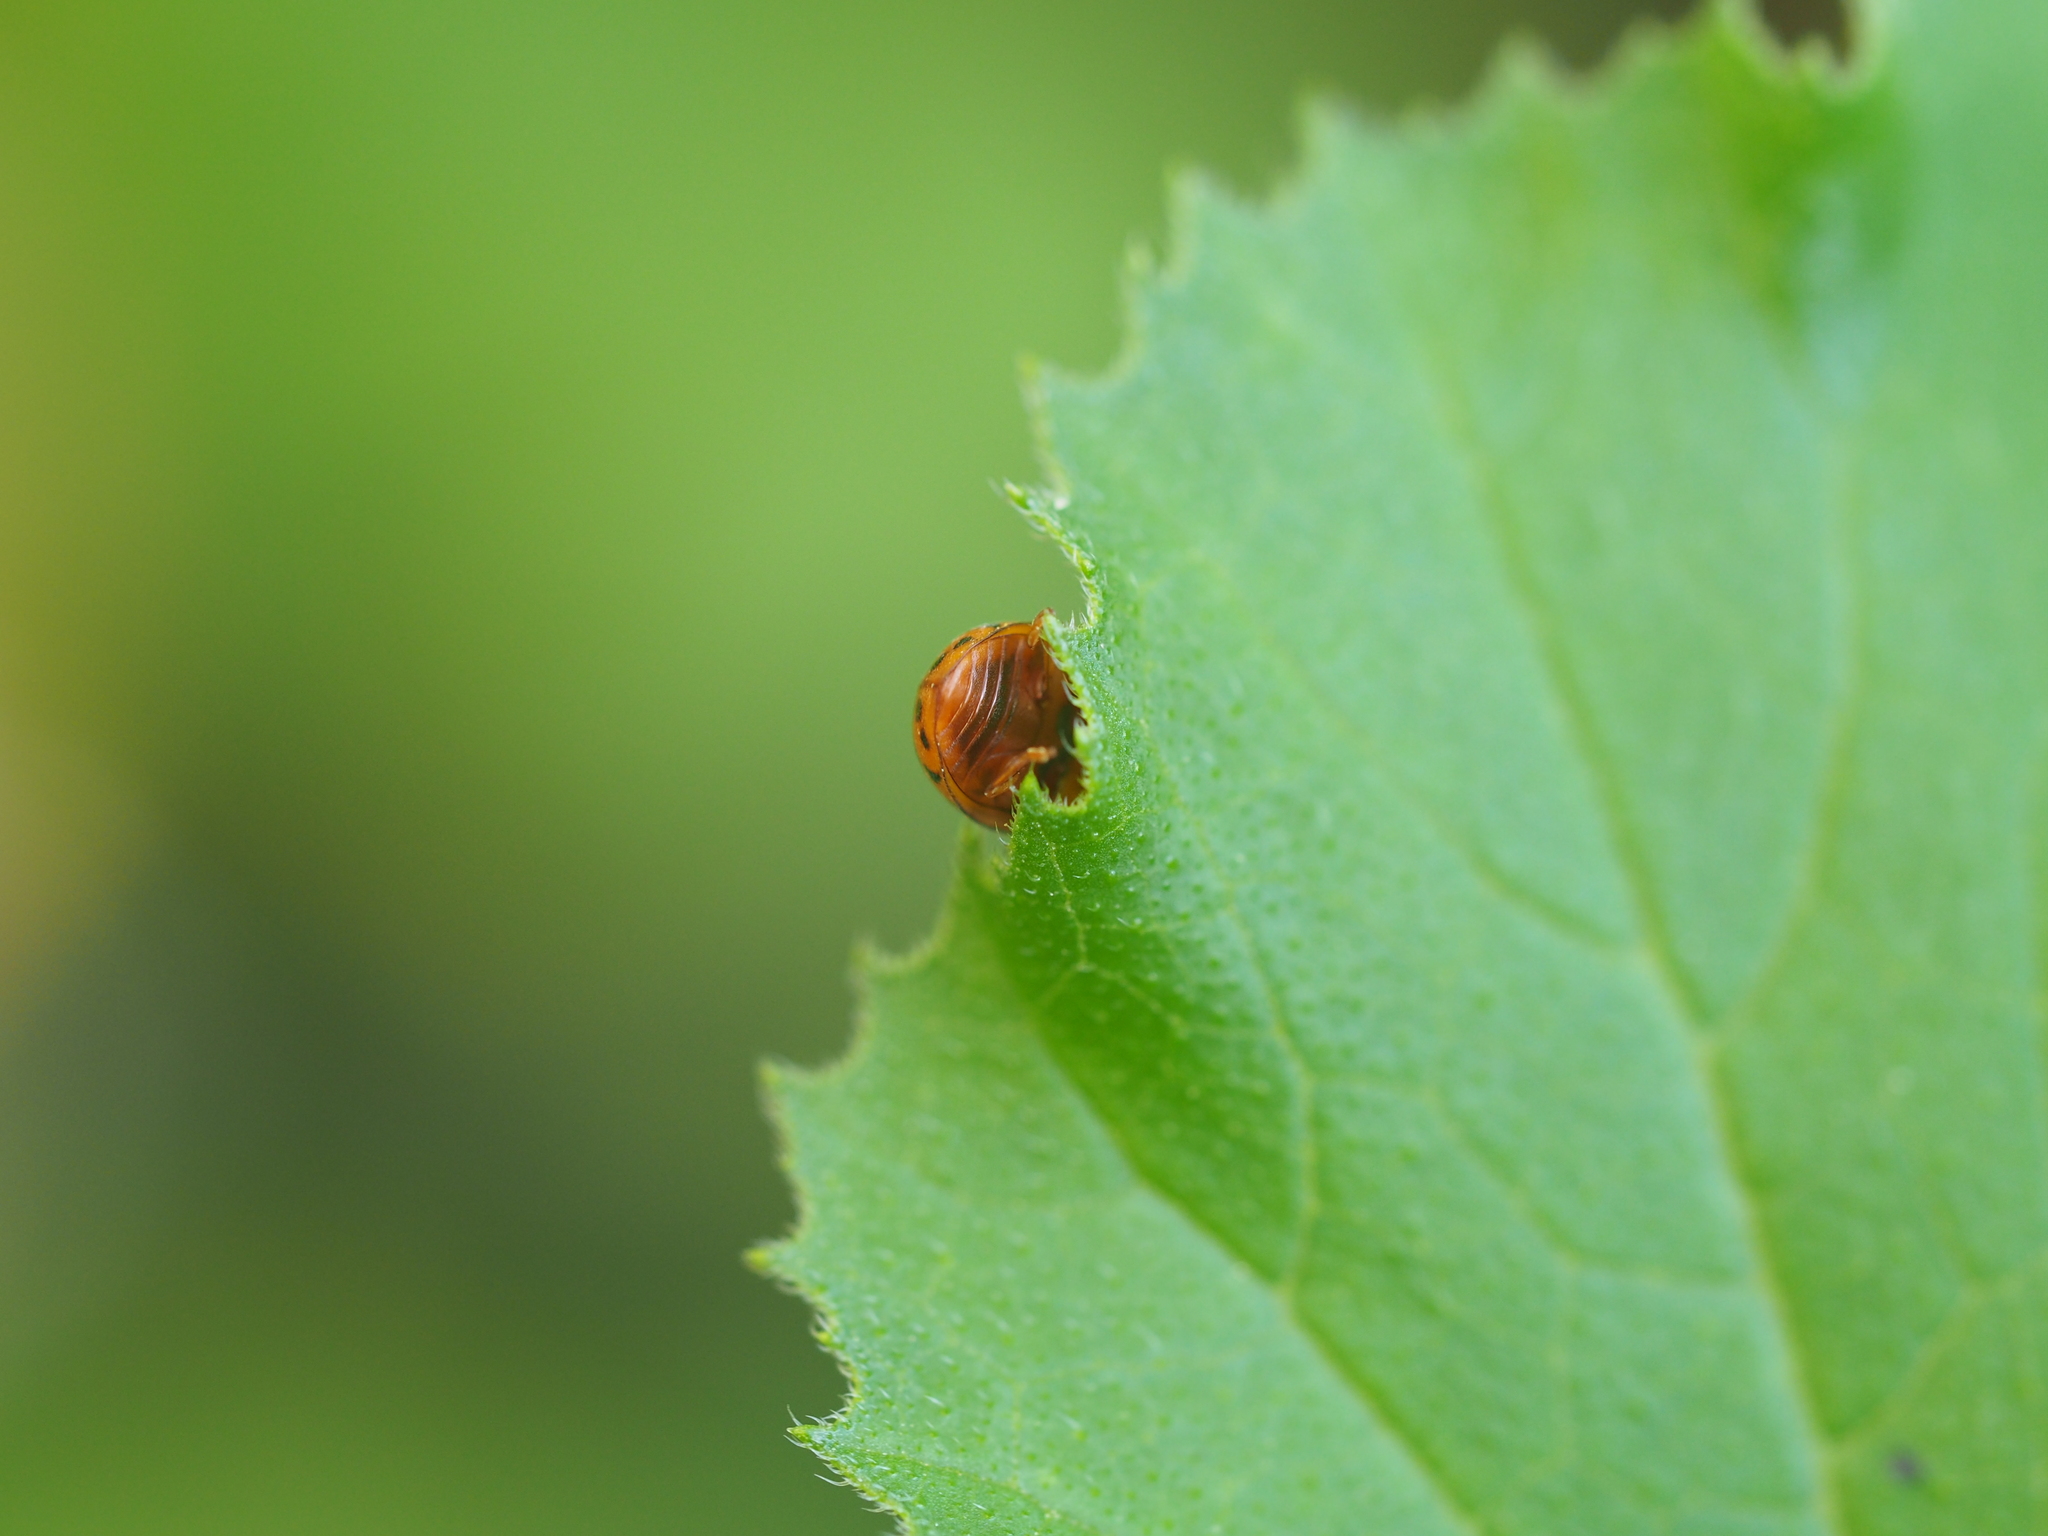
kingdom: Animalia
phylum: Arthropoda
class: Insecta
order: Coleoptera
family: Coccinellidae
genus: Subcoccinella
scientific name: Subcoccinella vigintiquatuorpunctata
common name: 24-spot ladybird
